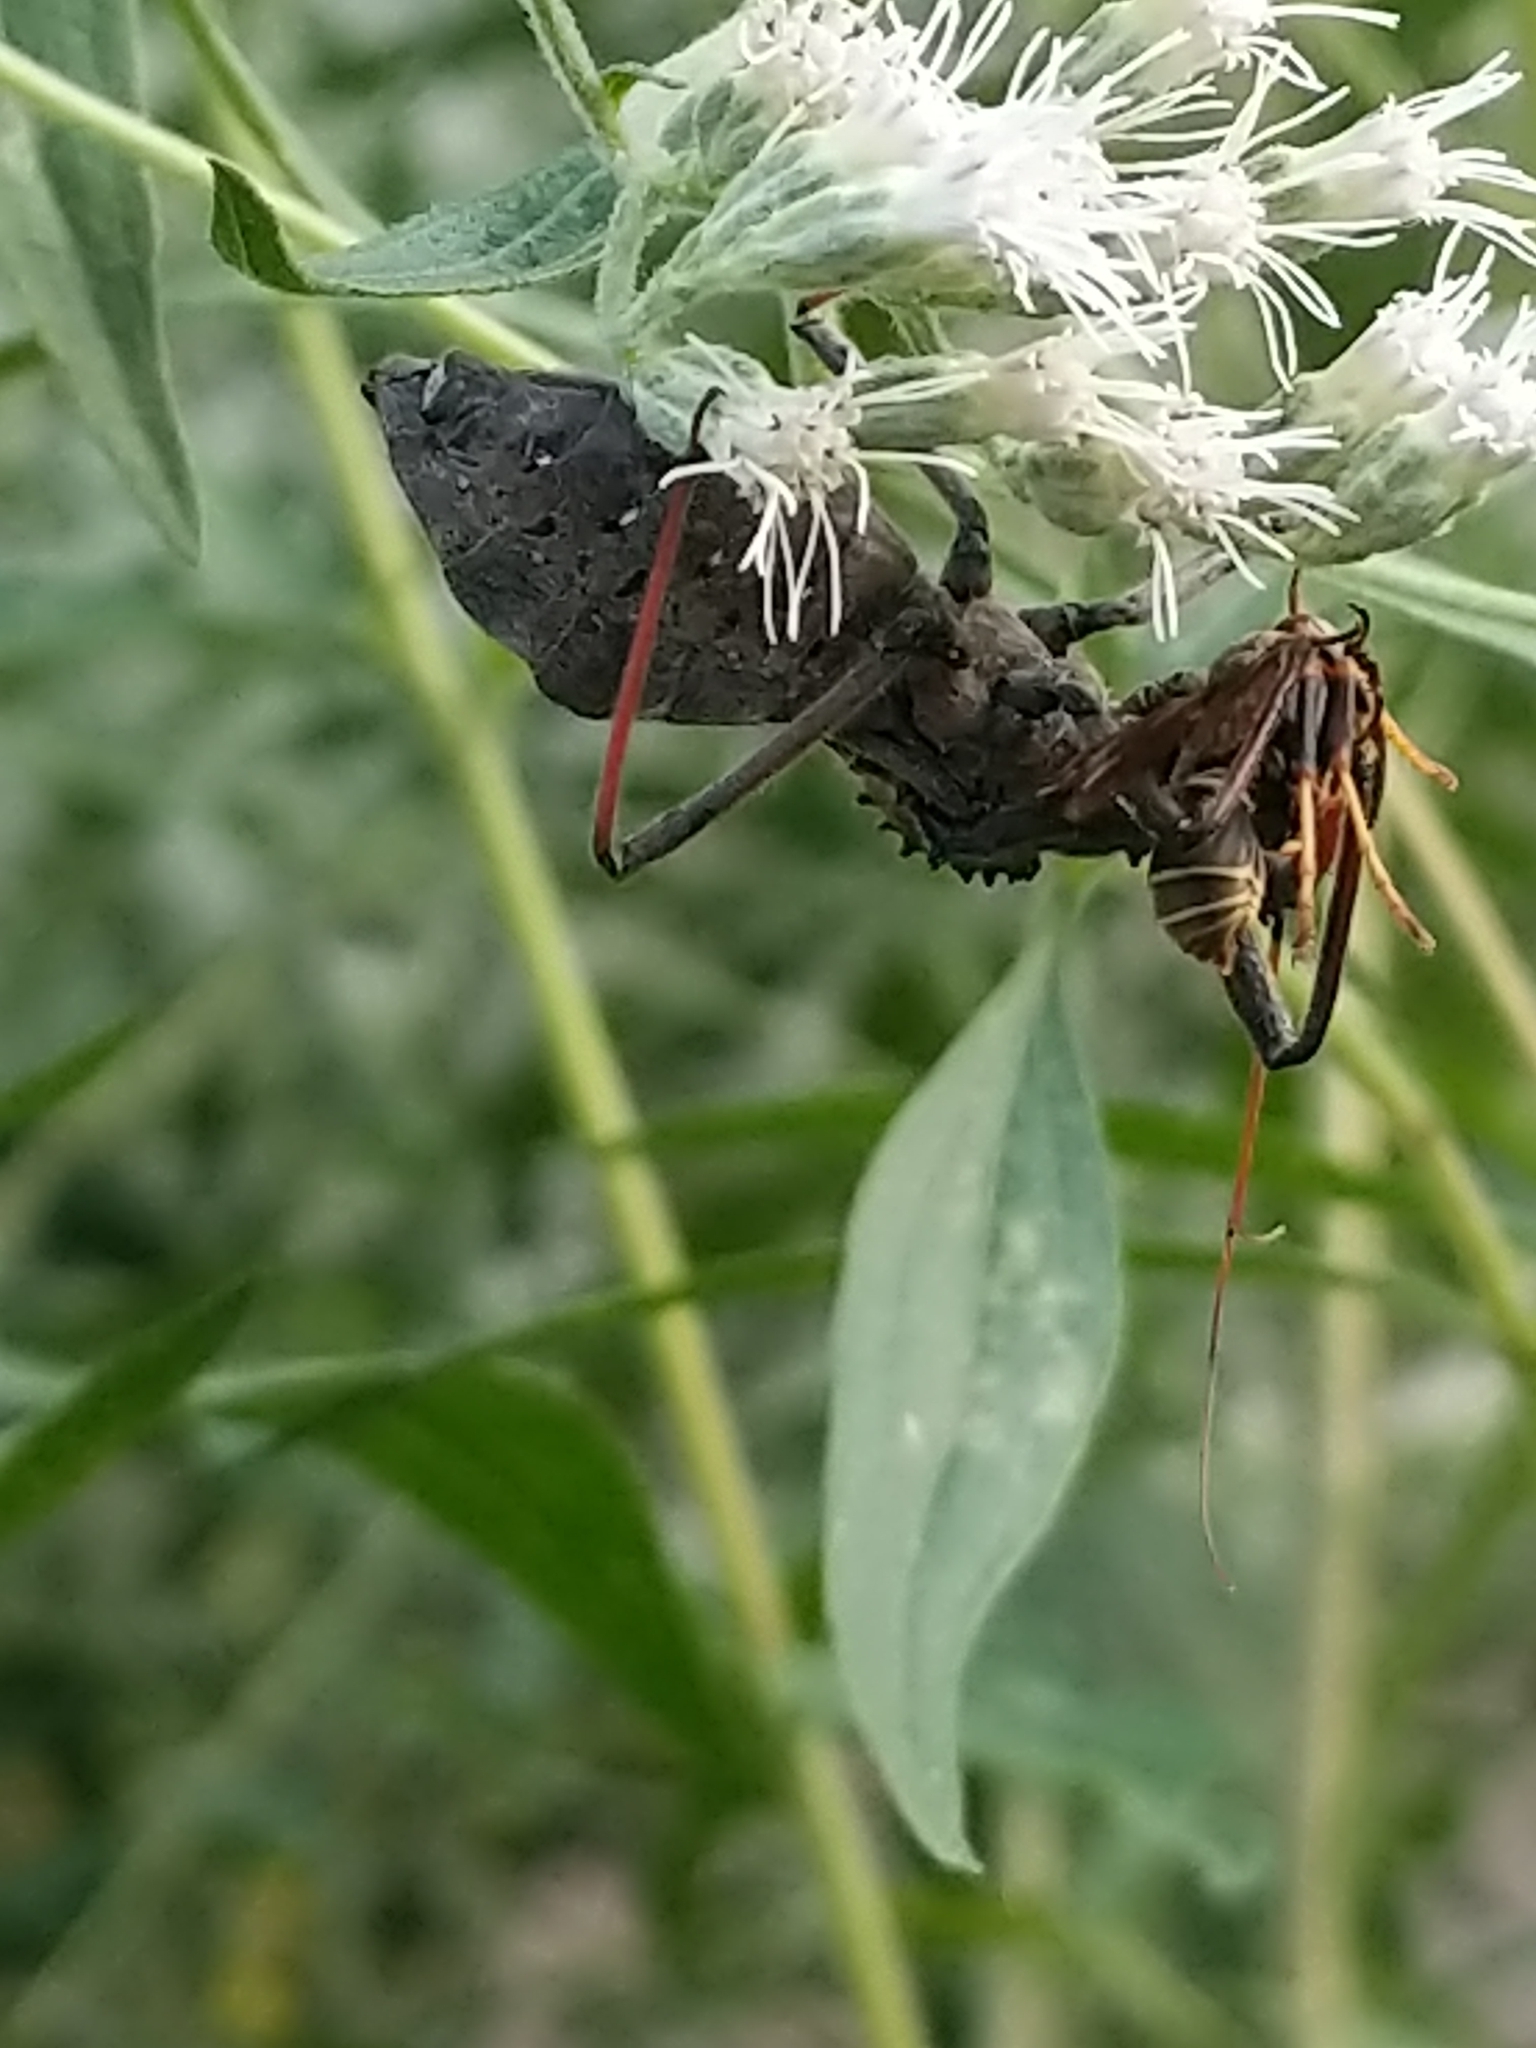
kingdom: Animalia
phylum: Arthropoda
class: Insecta
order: Hemiptera
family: Reduviidae
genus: Arilus
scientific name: Arilus cristatus
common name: North american wheel bug
